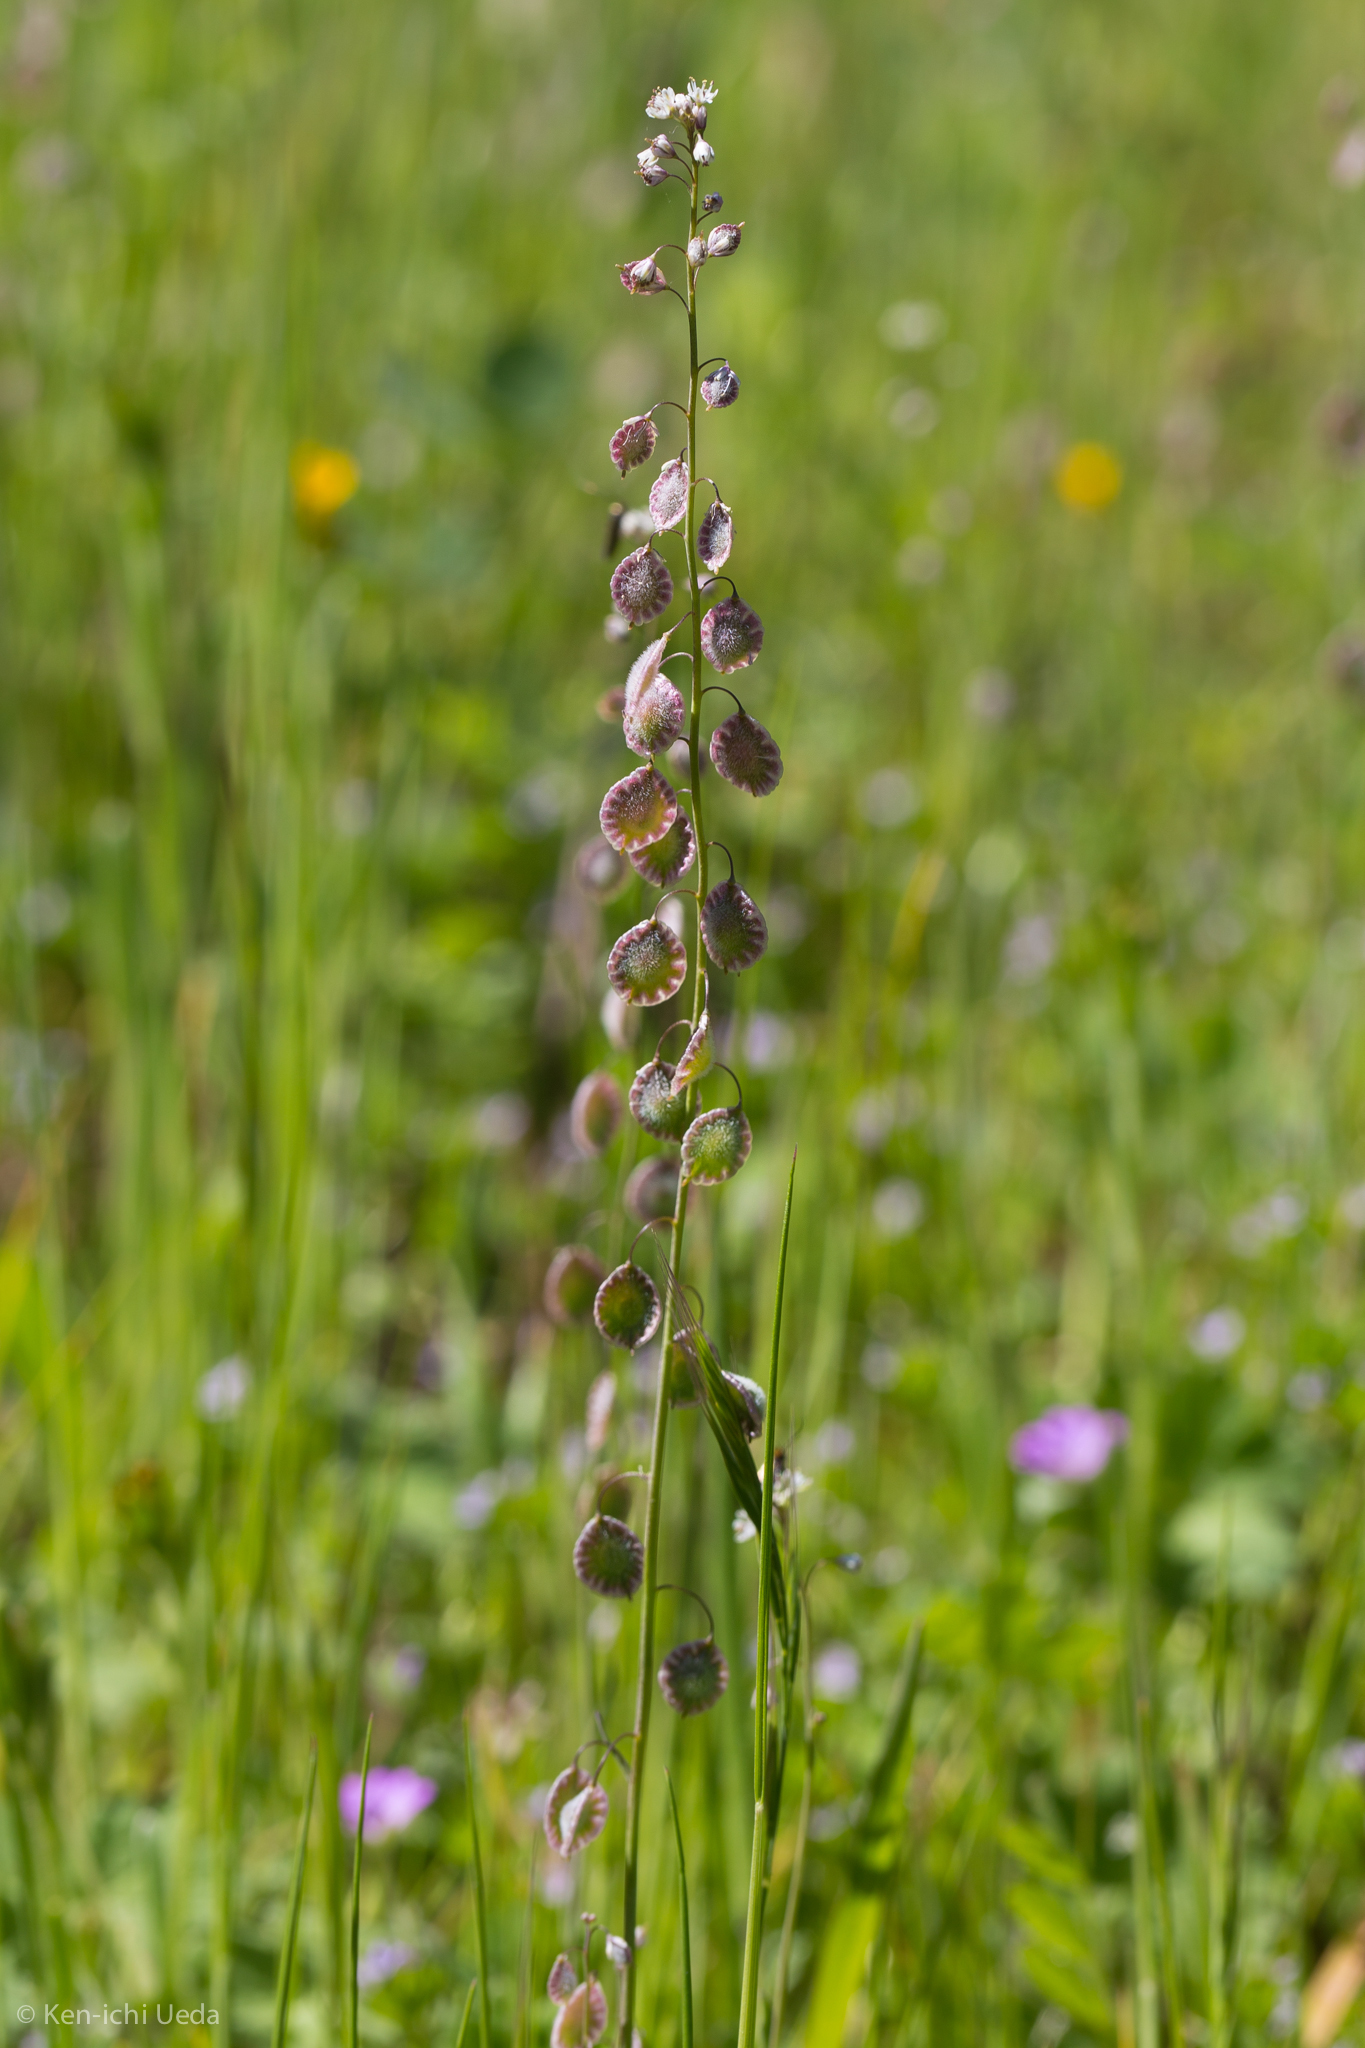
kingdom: Plantae
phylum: Tracheophyta
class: Magnoliopsida
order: Brassicales
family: Brassicaceae
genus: Thysanocarpus
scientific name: Thysanocarpus curvipes
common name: Sand fringepod
